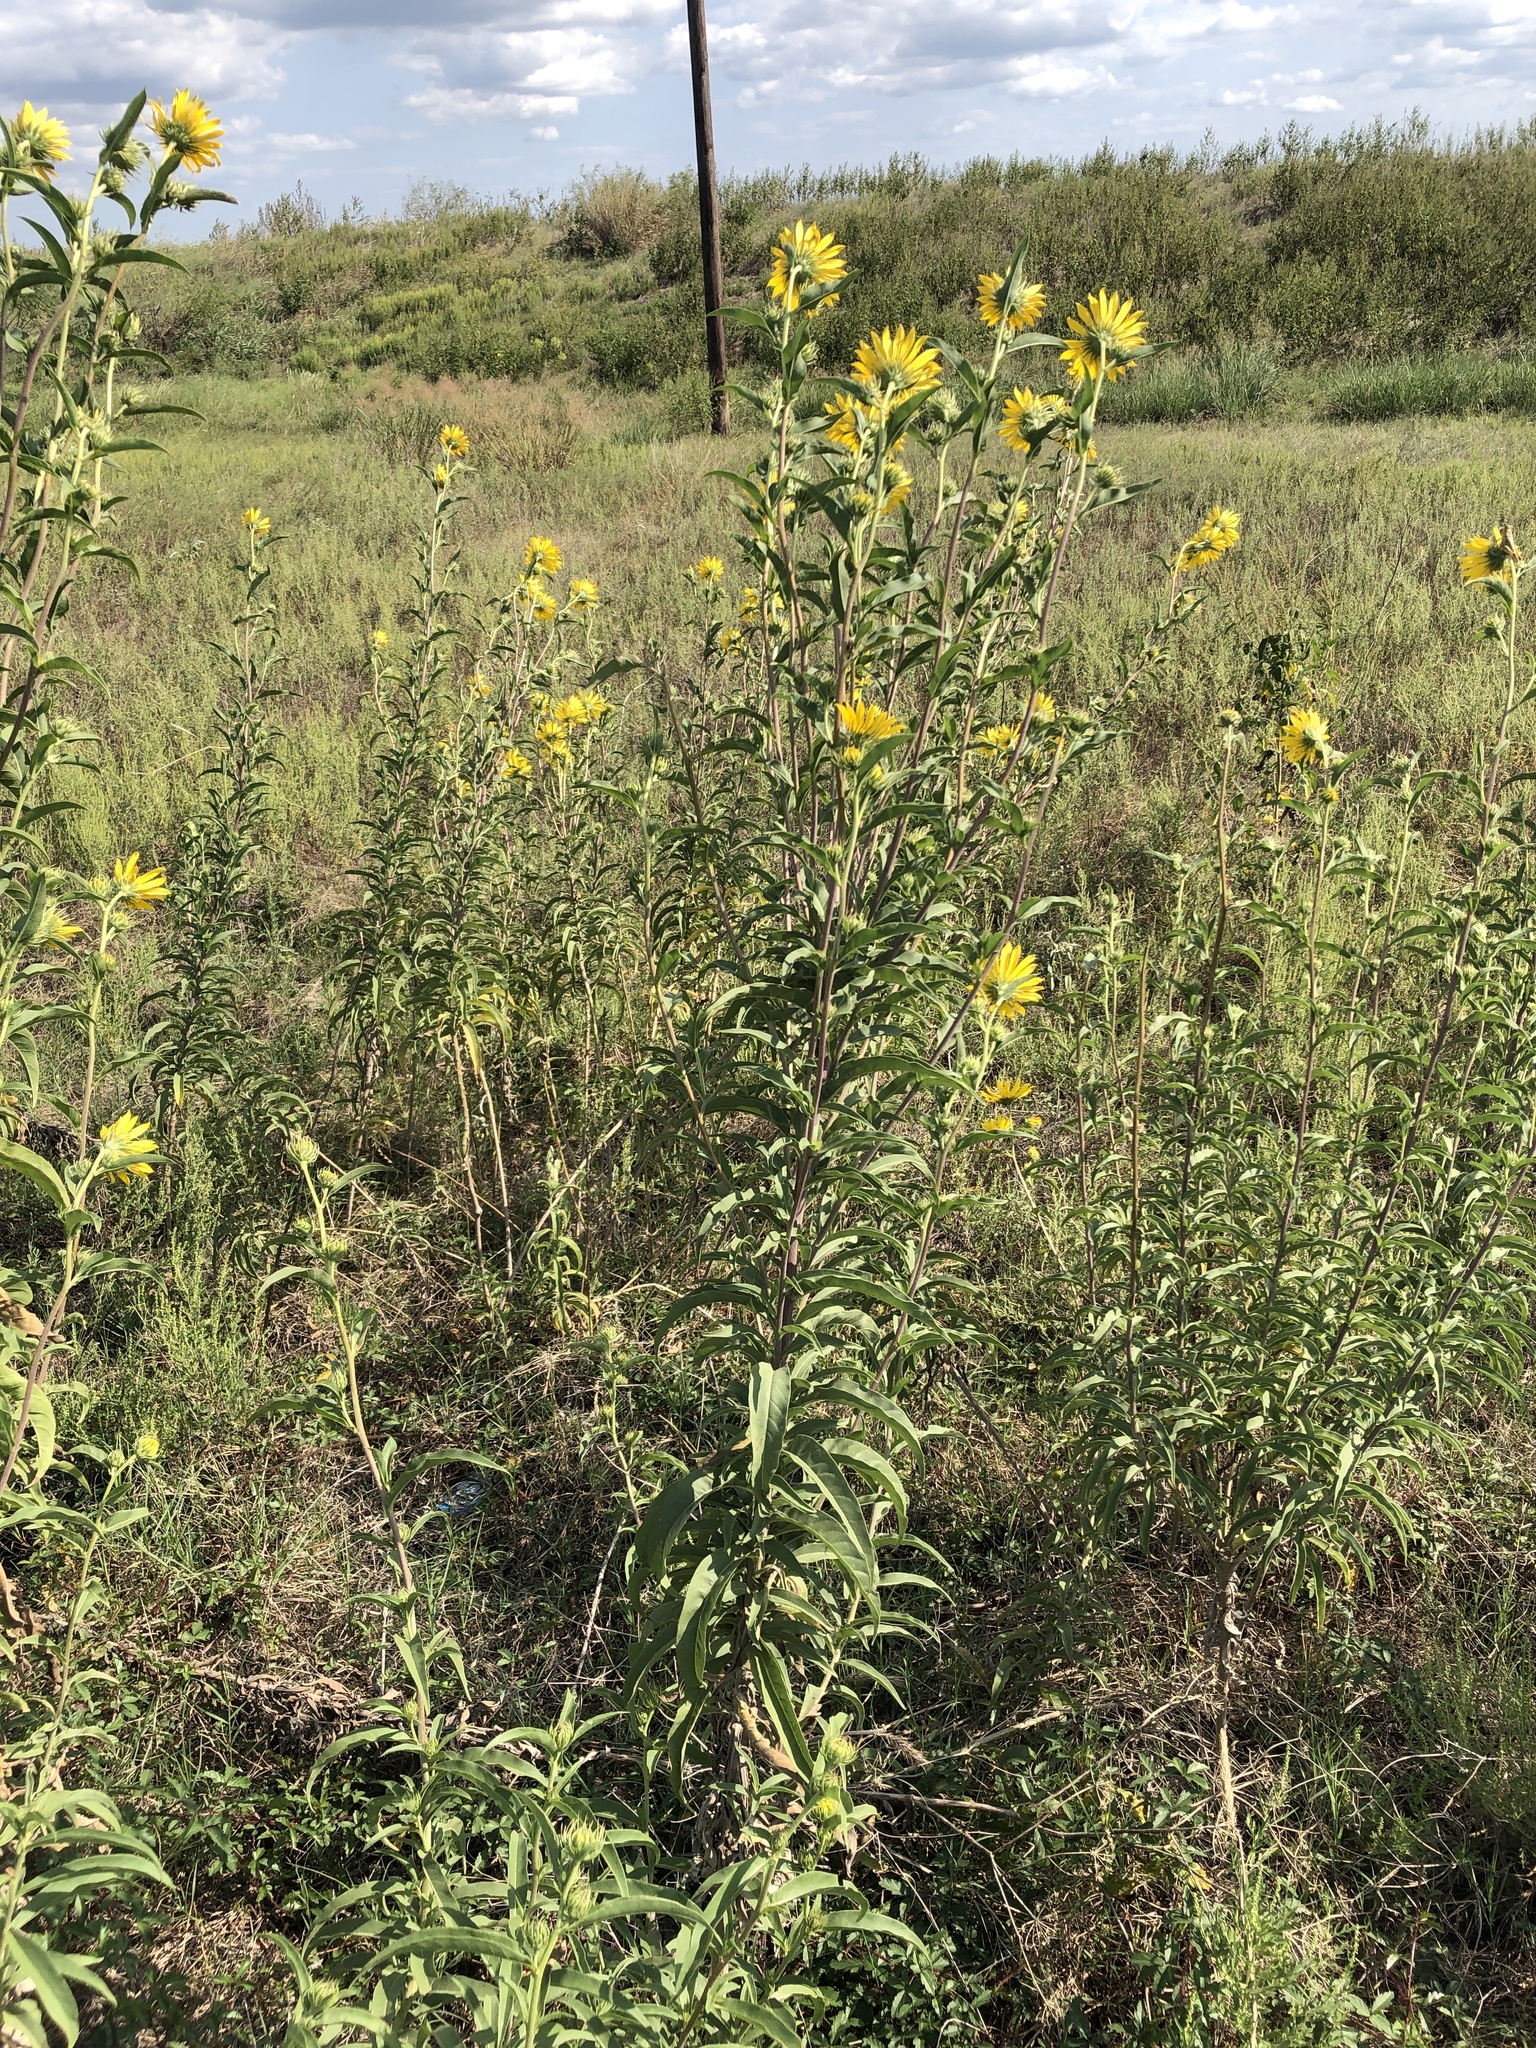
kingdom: Plantae
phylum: Tracheophyta
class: Magnoliopsida
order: Asterales
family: Asteraceae
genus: Helianthus
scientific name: Helianthus maximiliani
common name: Maximilian's sunflower
